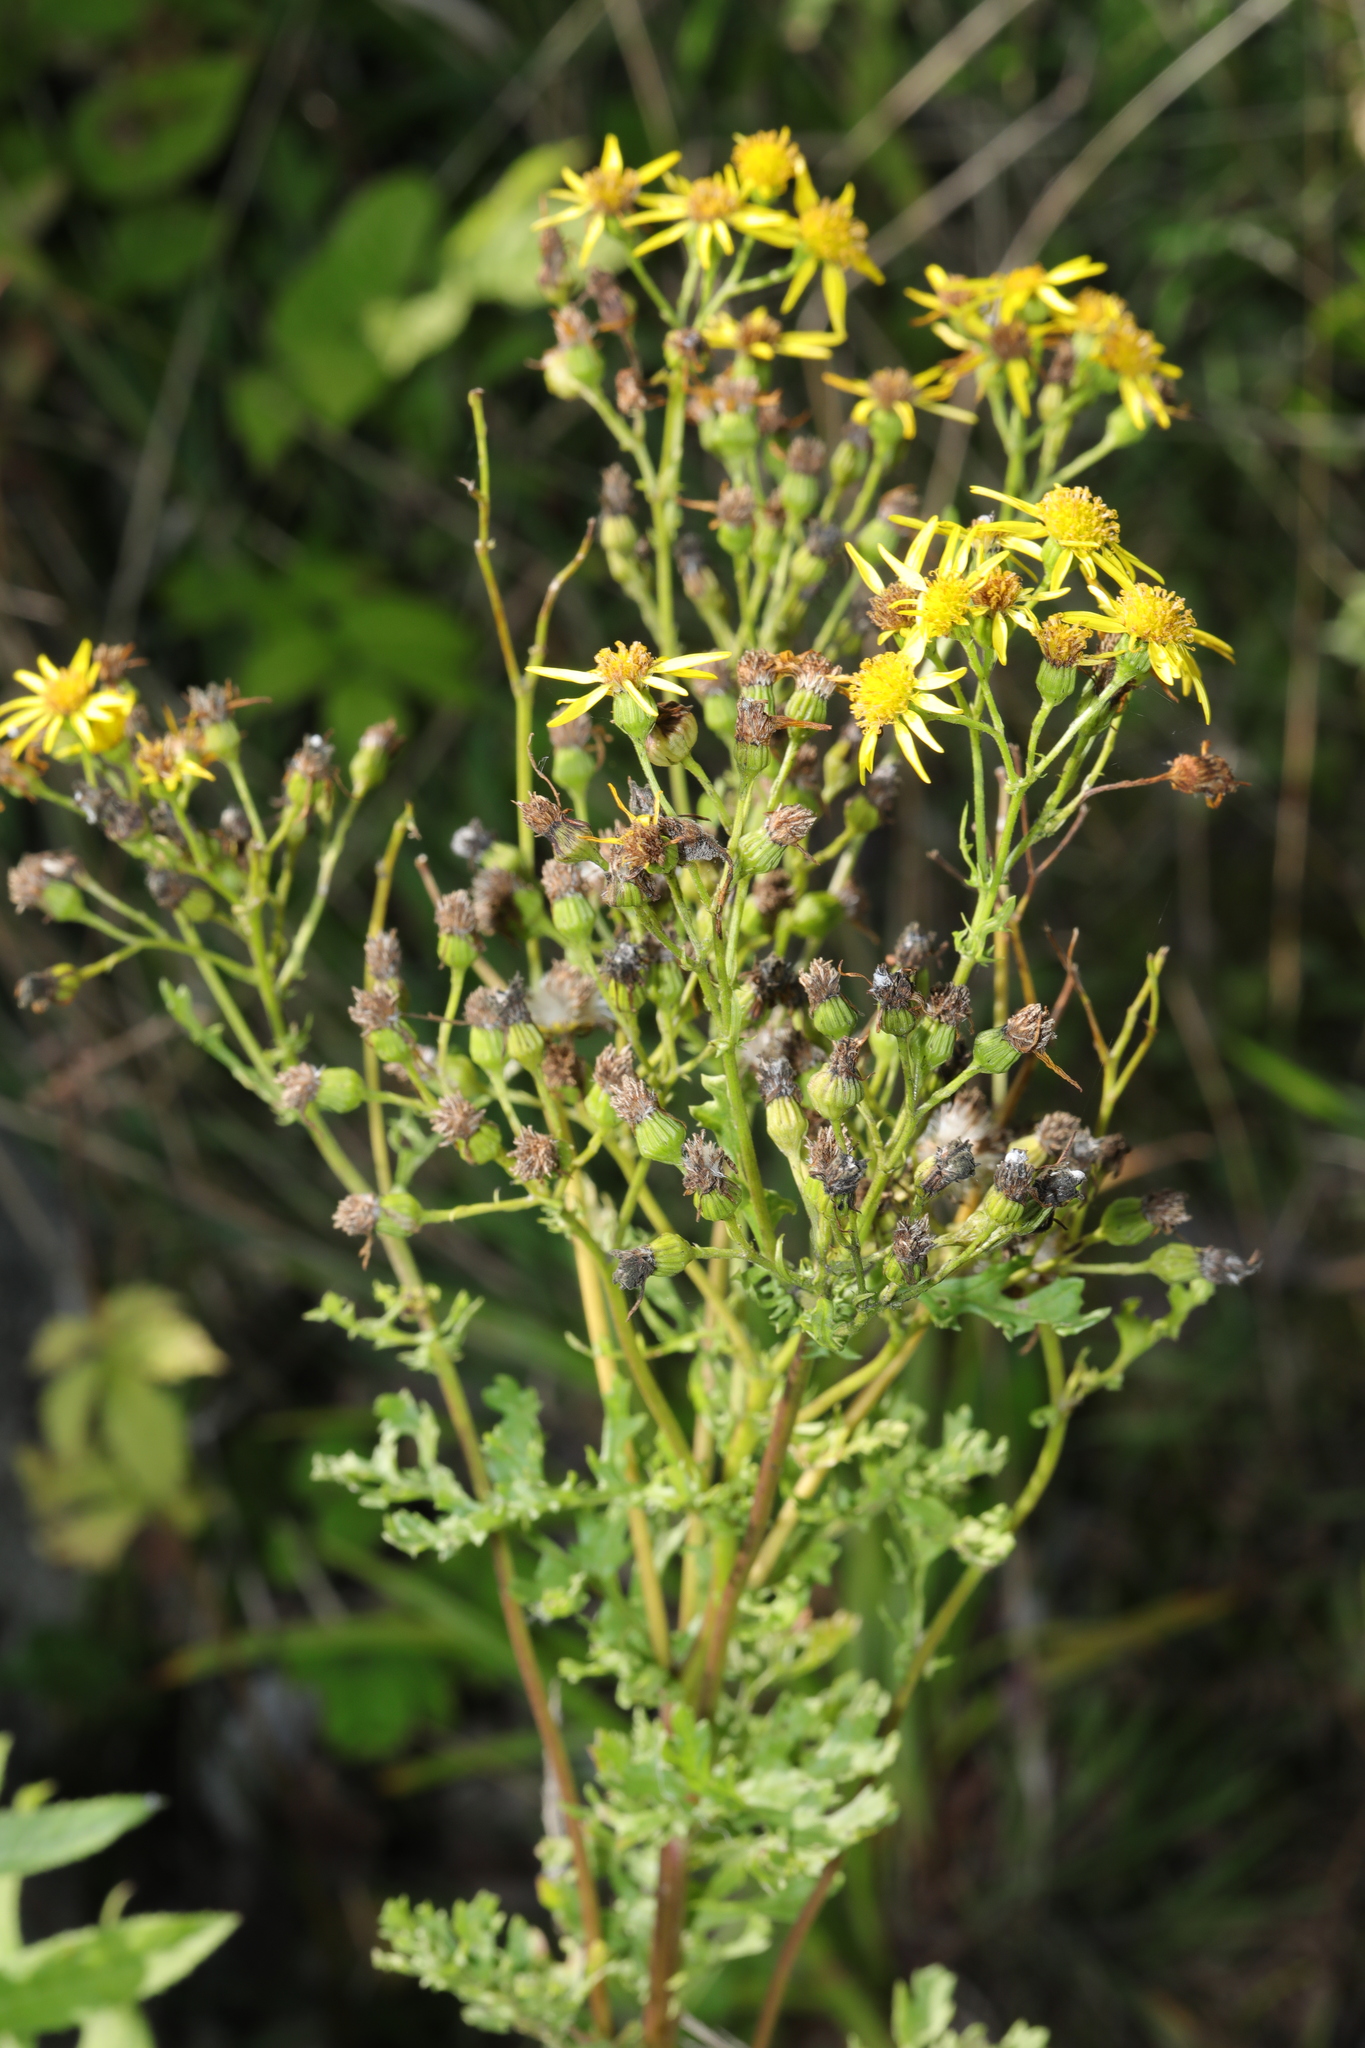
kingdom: Plantae
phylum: Tracheophyta
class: Magnoliopsida
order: Asterales
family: Asteraceae
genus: Jacobaea
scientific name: Jacobaea vulgaris
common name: Stinking willie
